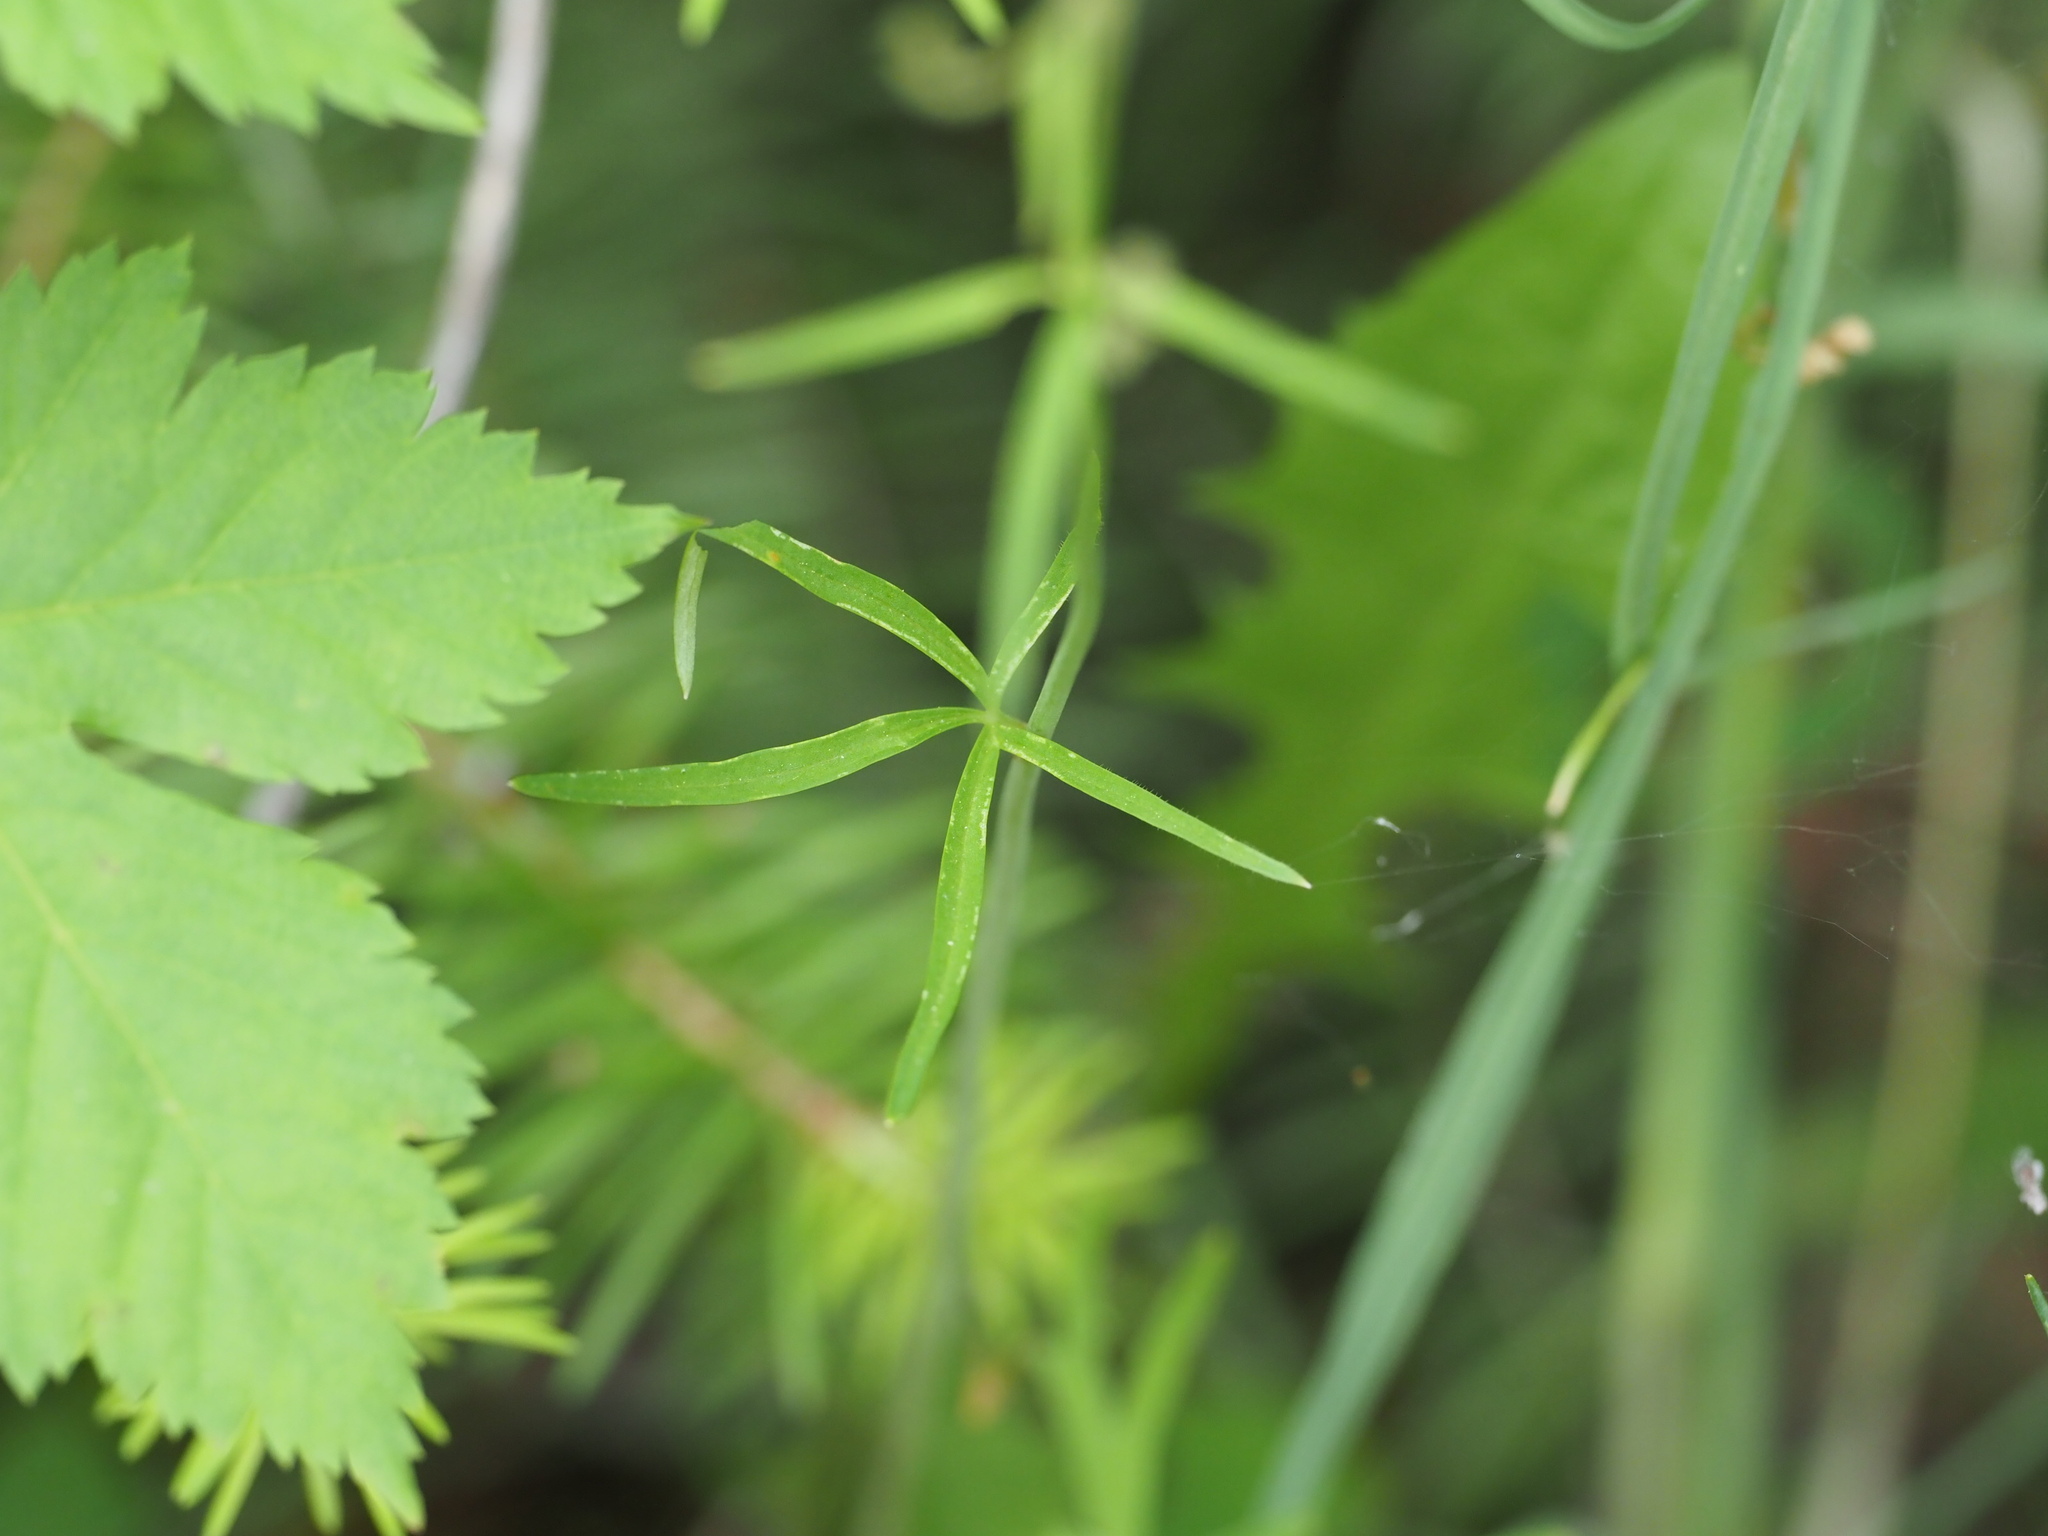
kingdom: Plantae
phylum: Tracheophyta
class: Magnoliopsida
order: Ranunculales
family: Ranunculaceae
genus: Delphinium
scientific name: Delphinium nuttallianum
